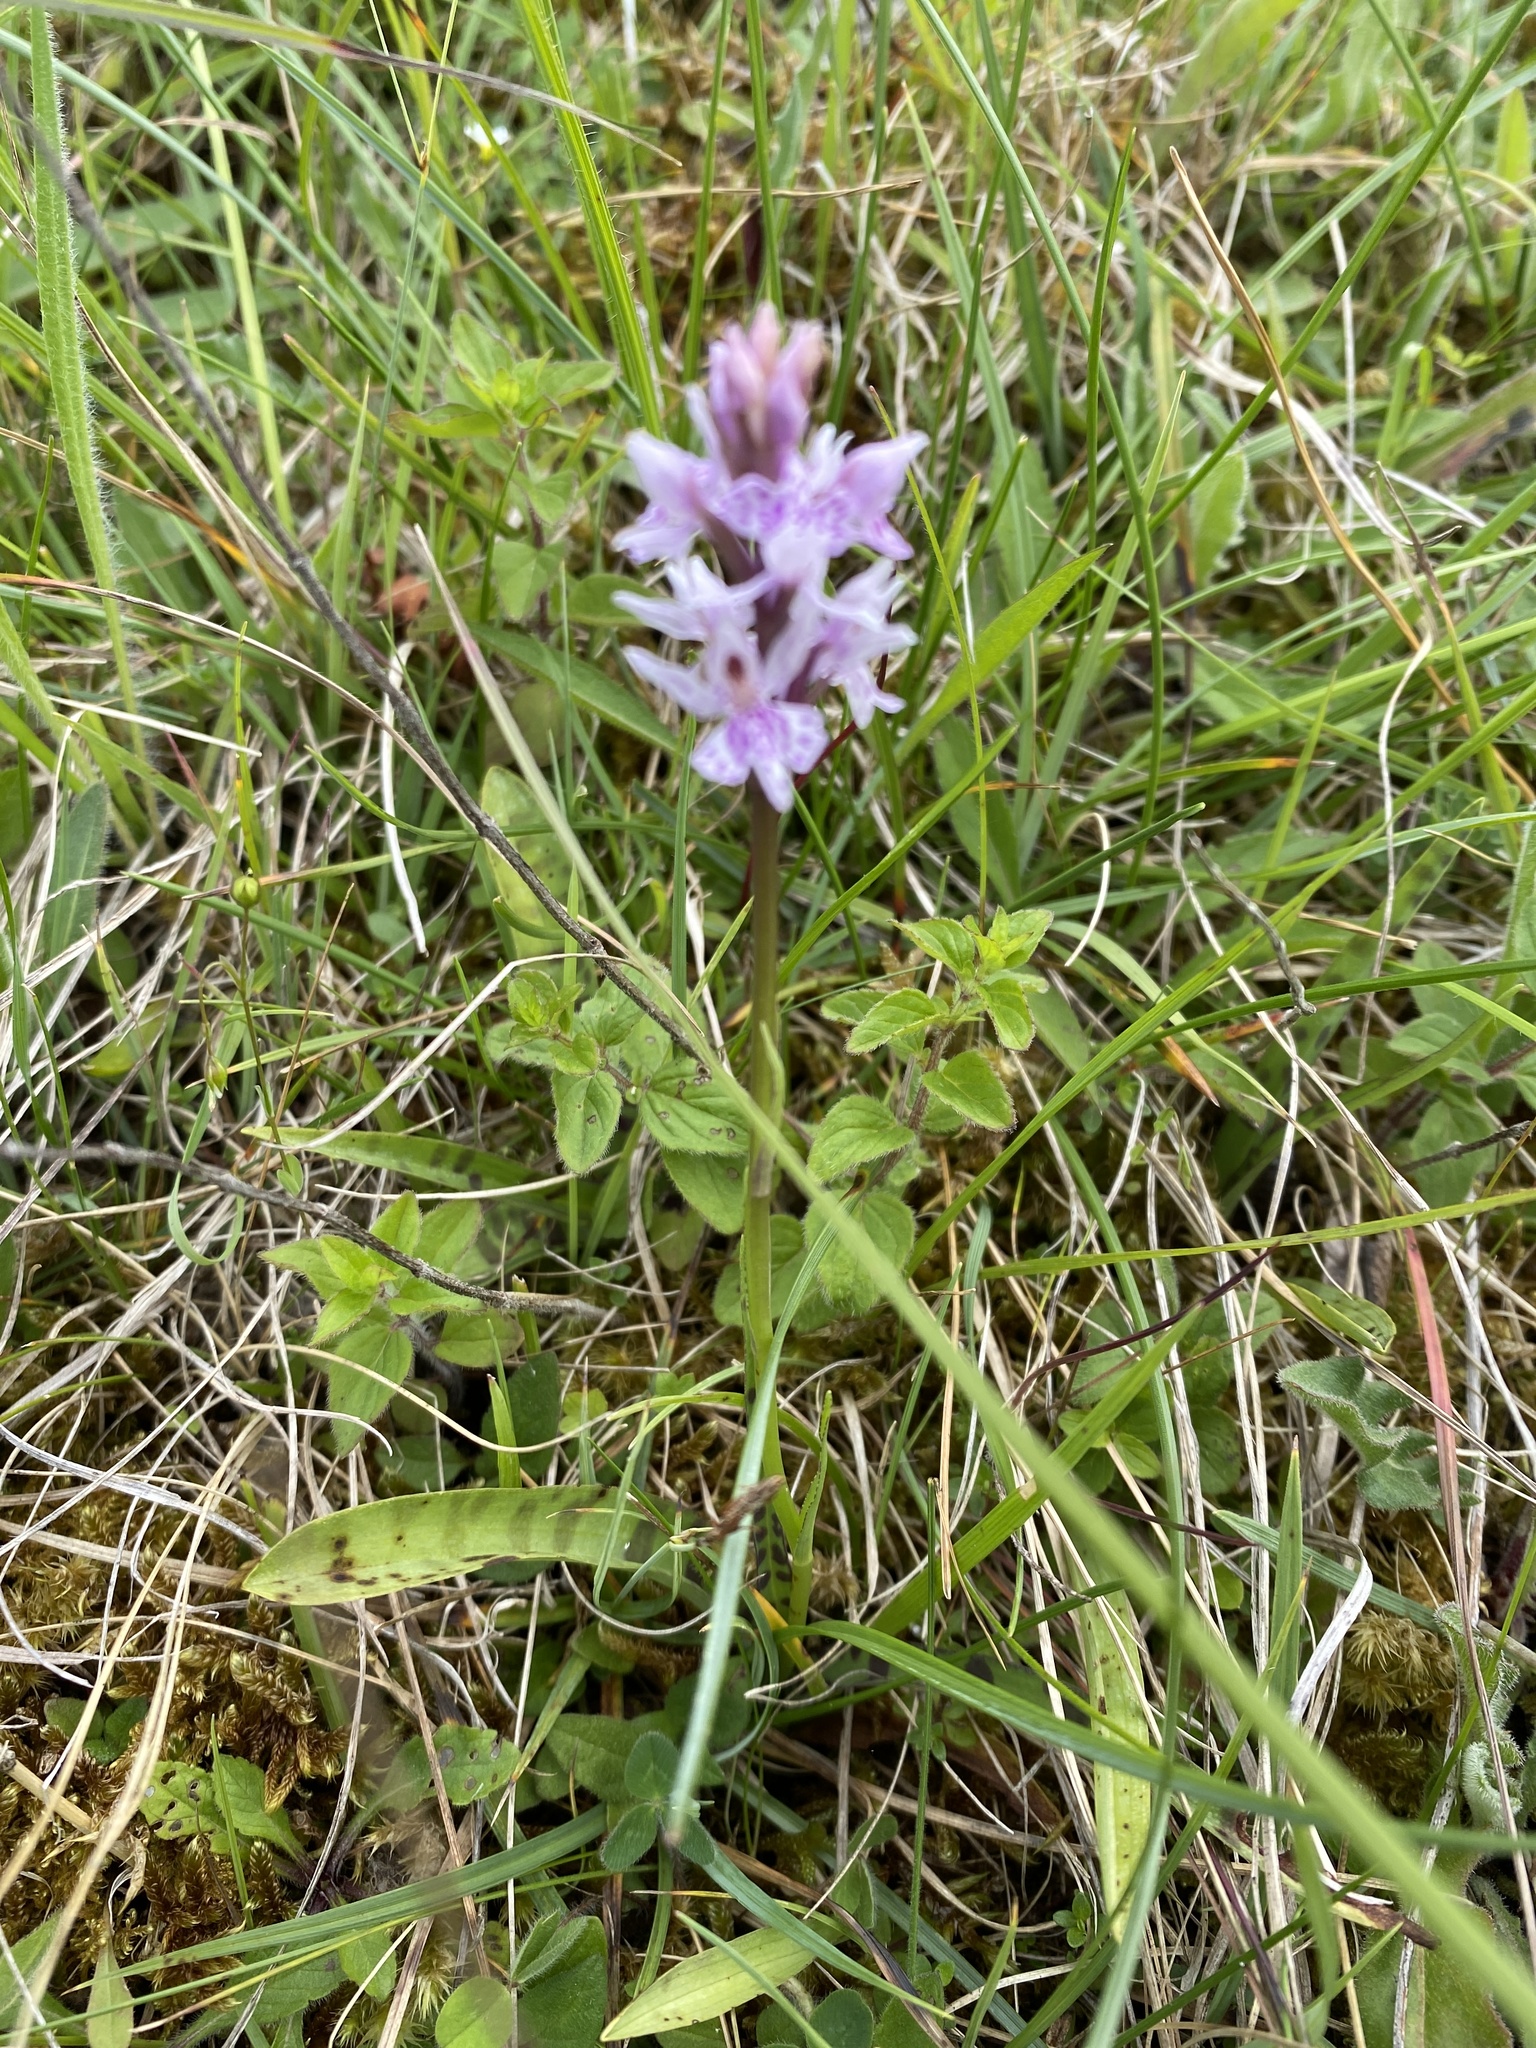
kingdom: Plantae
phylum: Tracheophyta
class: Liliopsida
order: Asparagales
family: Orchidaceae
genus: Dactylorhiza
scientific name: Dactylorhiza maculata
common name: Heath spotted-orchid
